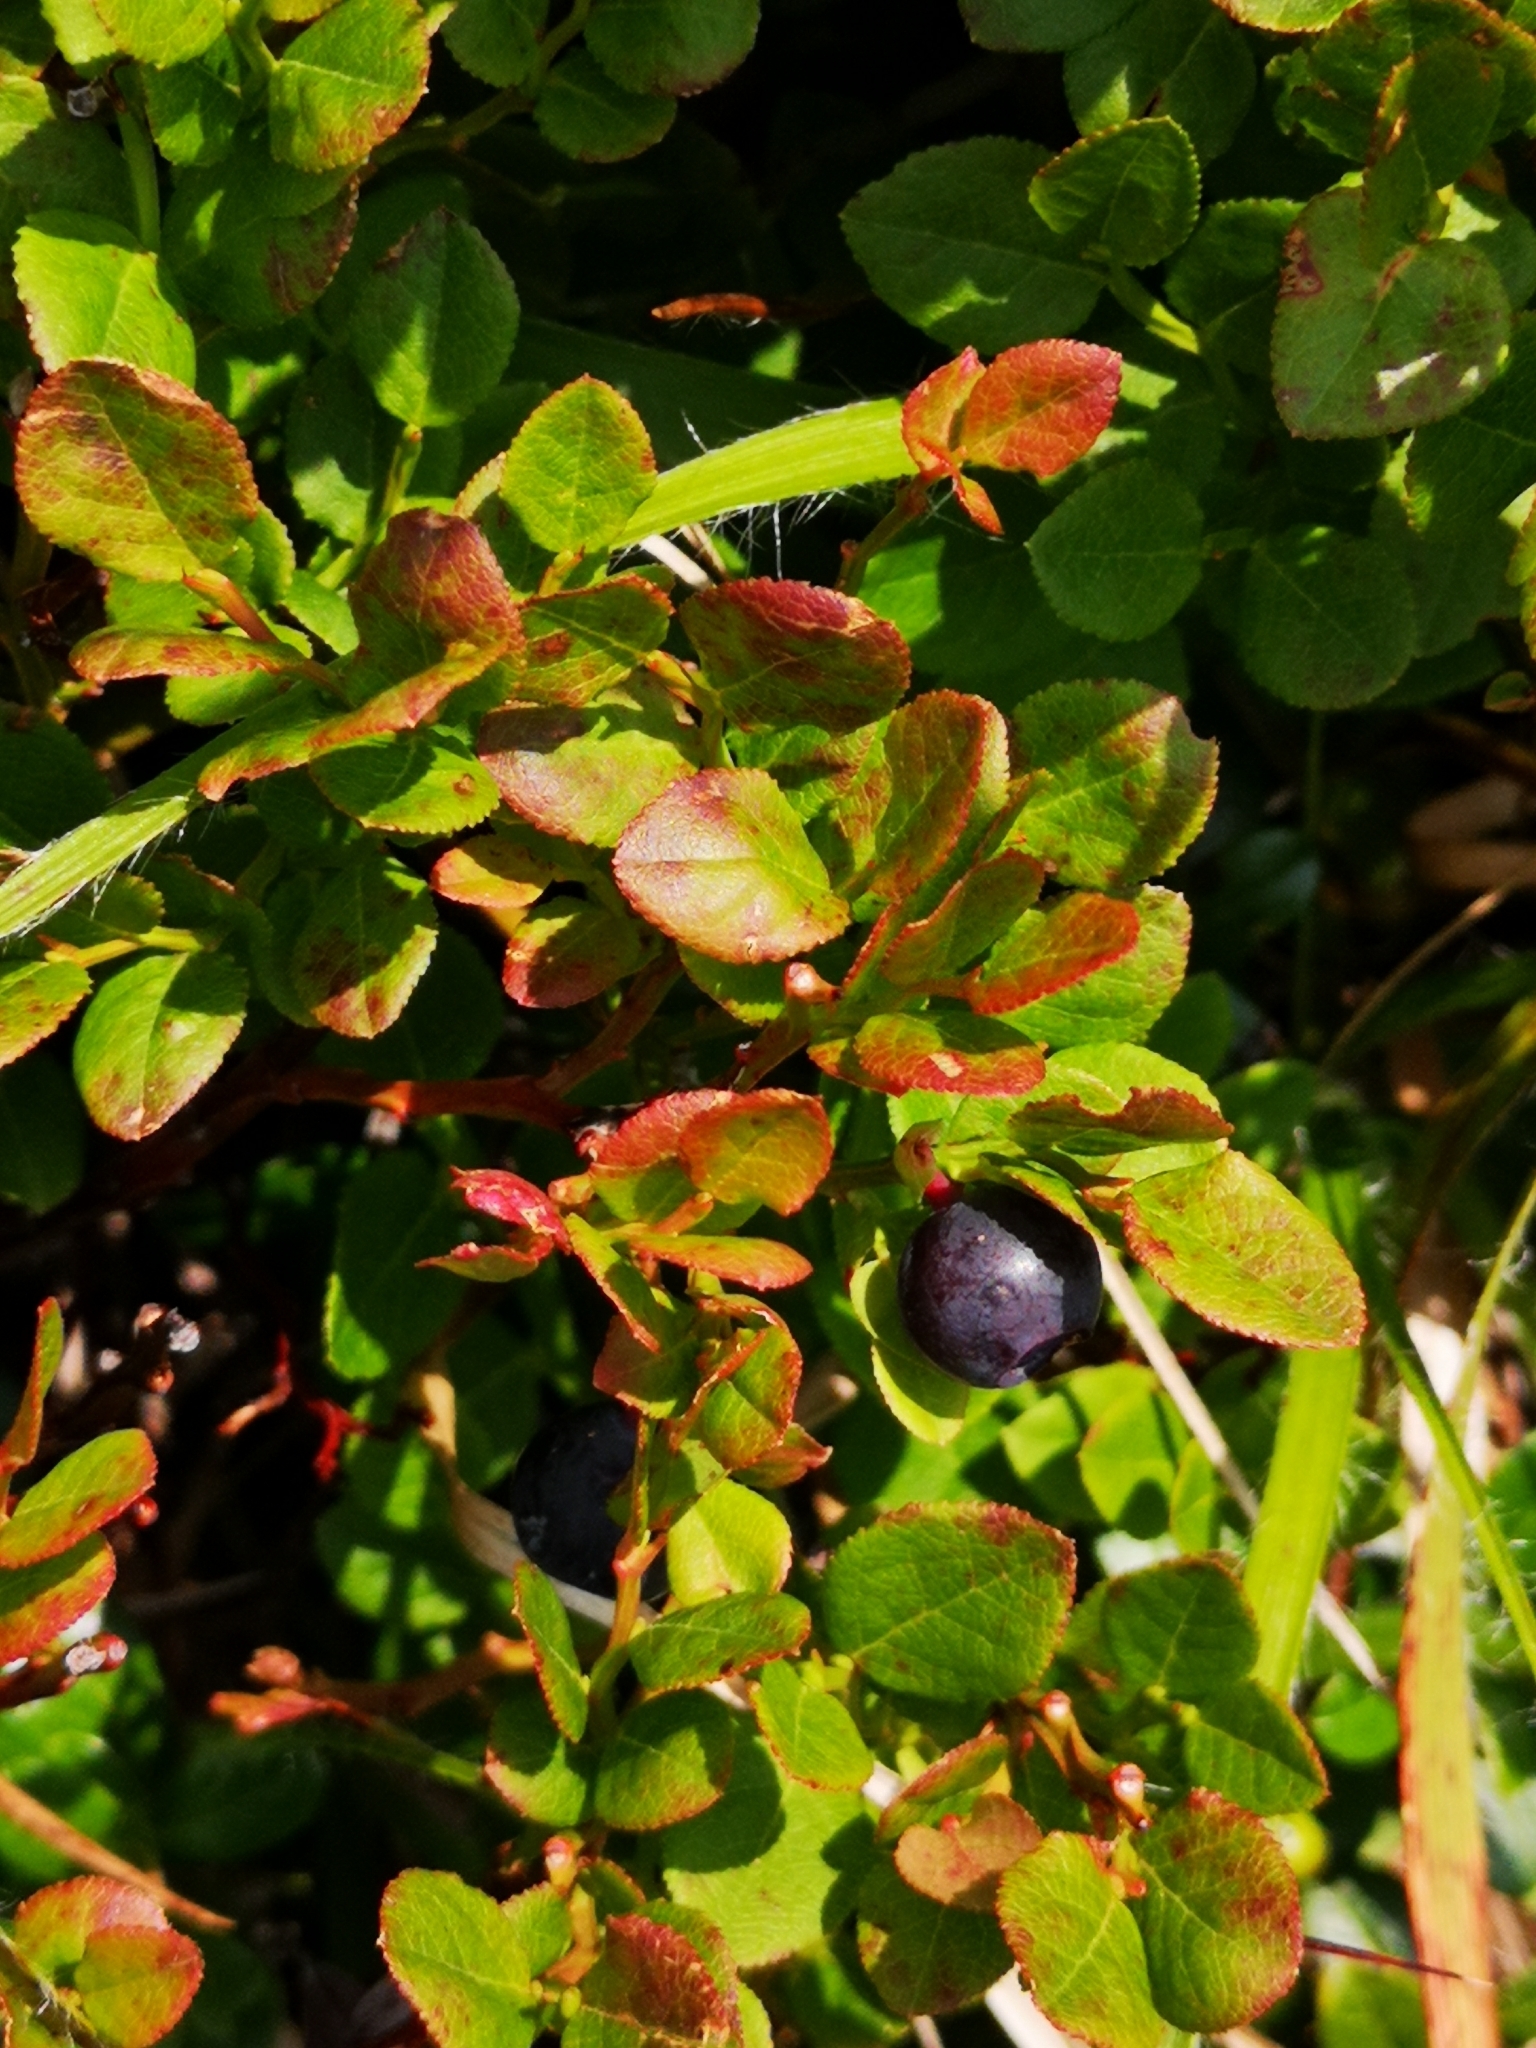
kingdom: Plantae
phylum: Tracheophyta
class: Magnoliopsida
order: Ericales
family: Ericaceae
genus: Vaccinium
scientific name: Vaccinium myrtillus
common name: Bilberry
